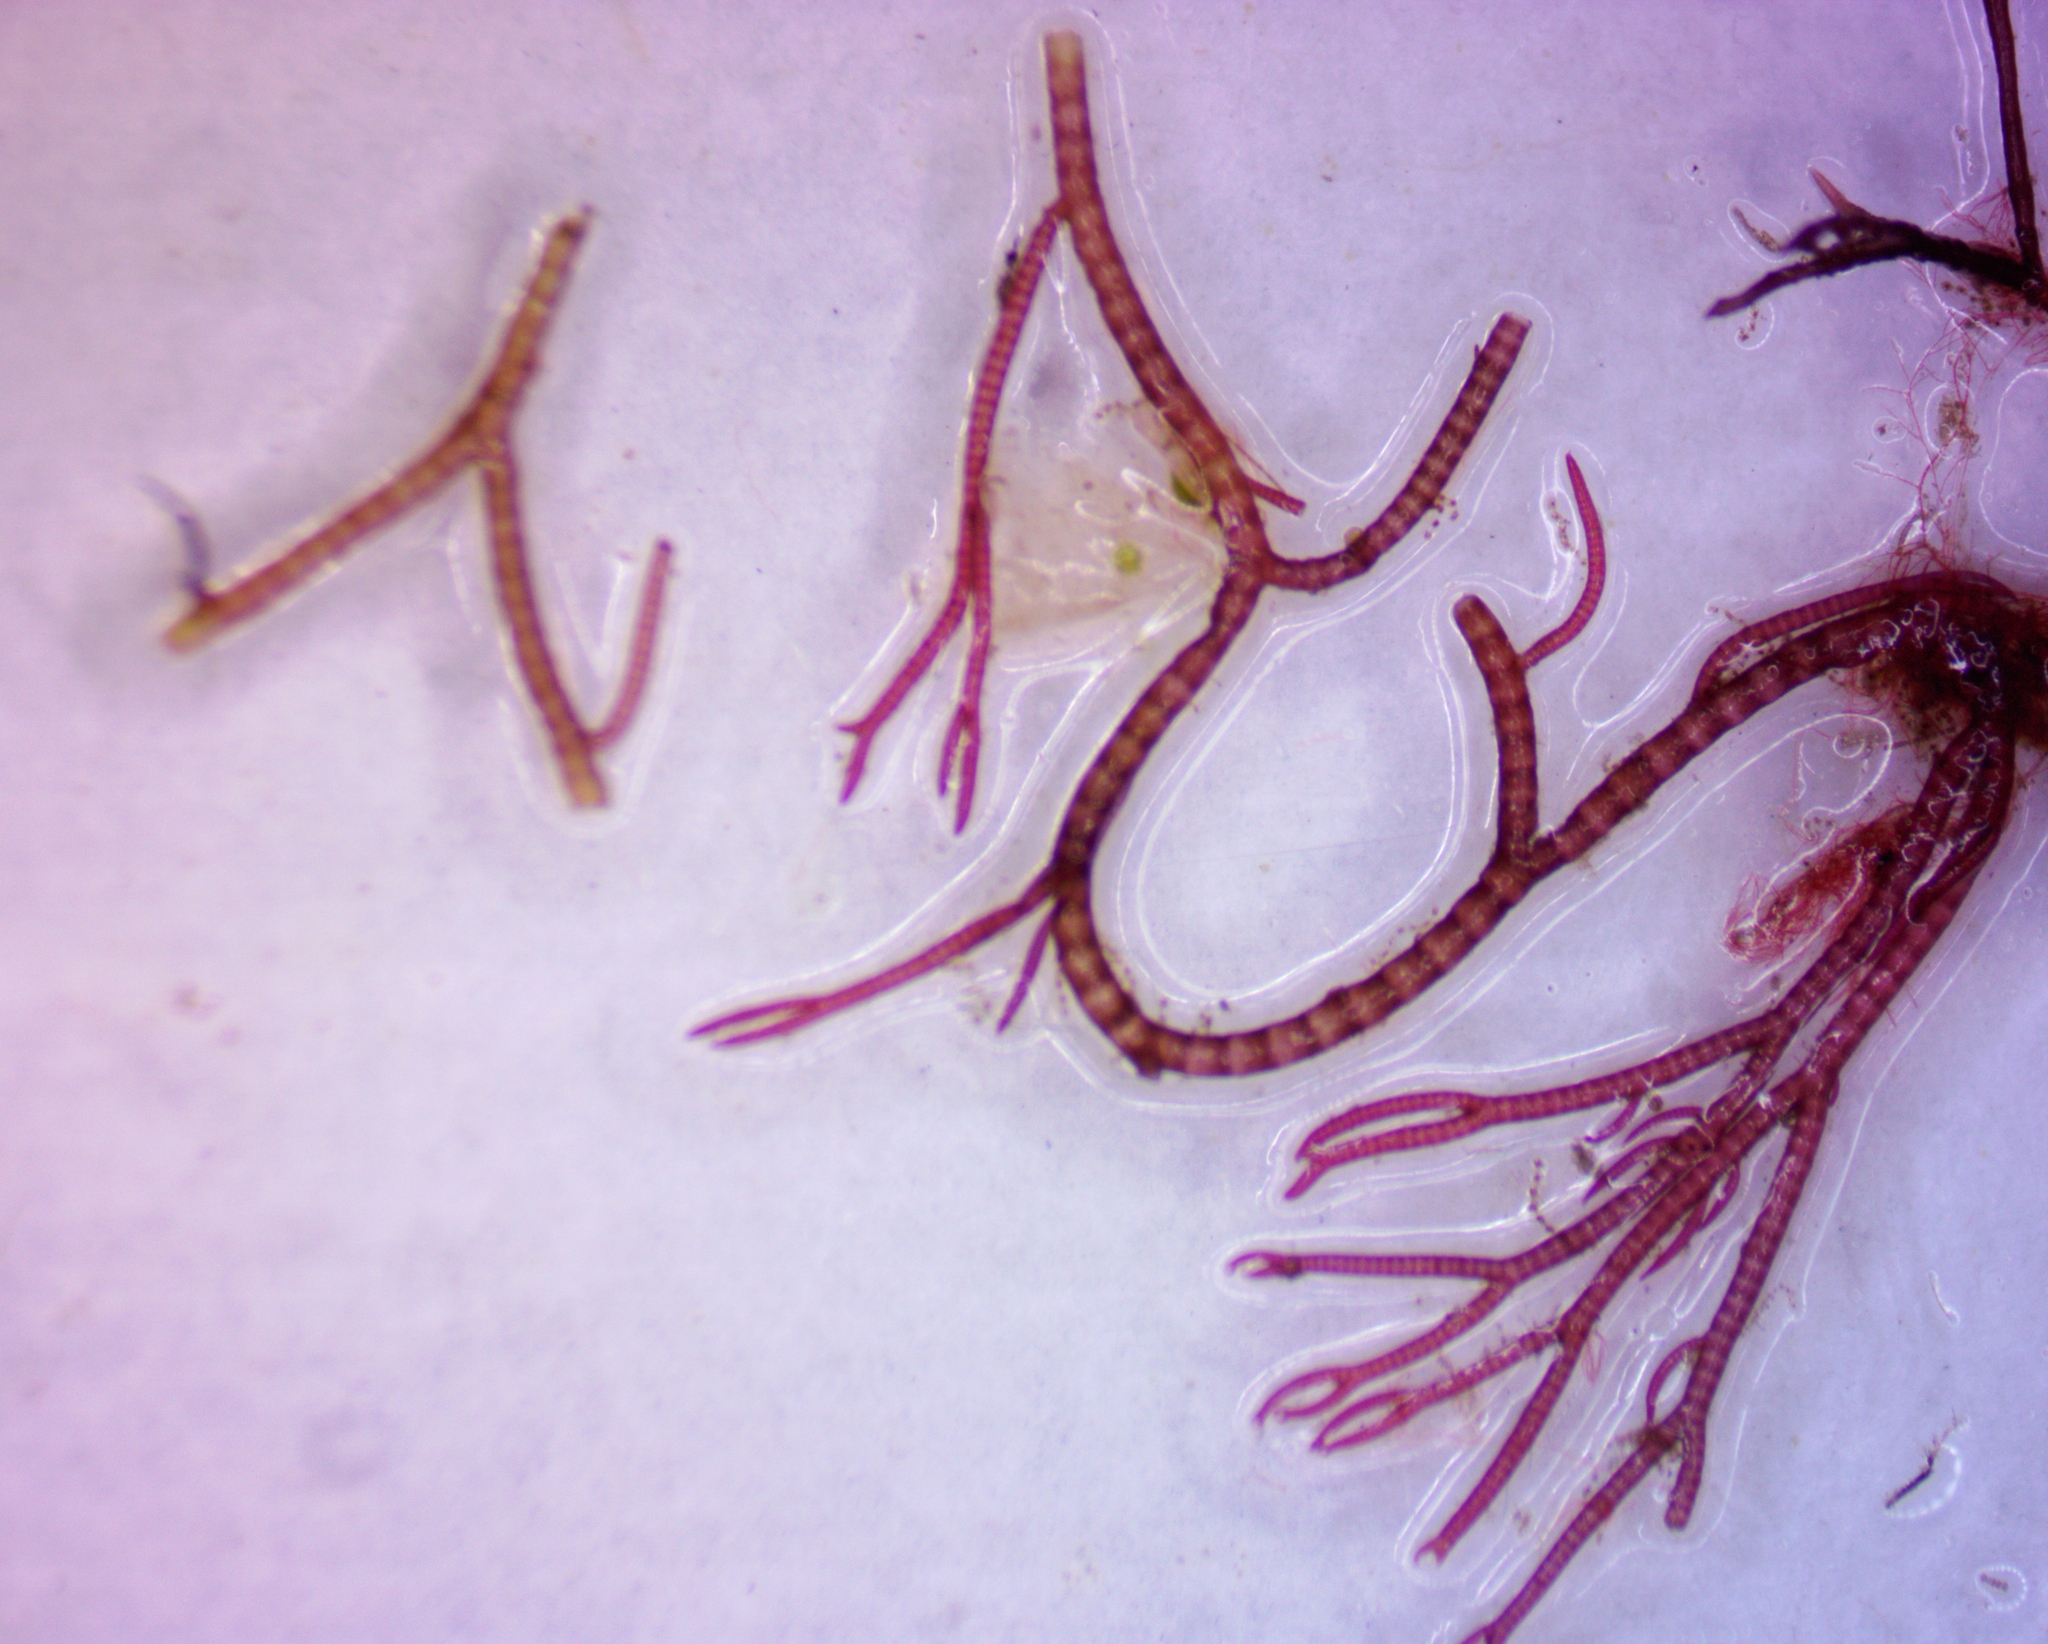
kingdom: Plantae
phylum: Rhodophyta
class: Florideophyceae
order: Ceramiales
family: Ceramiaceae
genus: Ceramium
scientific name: Ceramium virgatum
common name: Red hornweed
